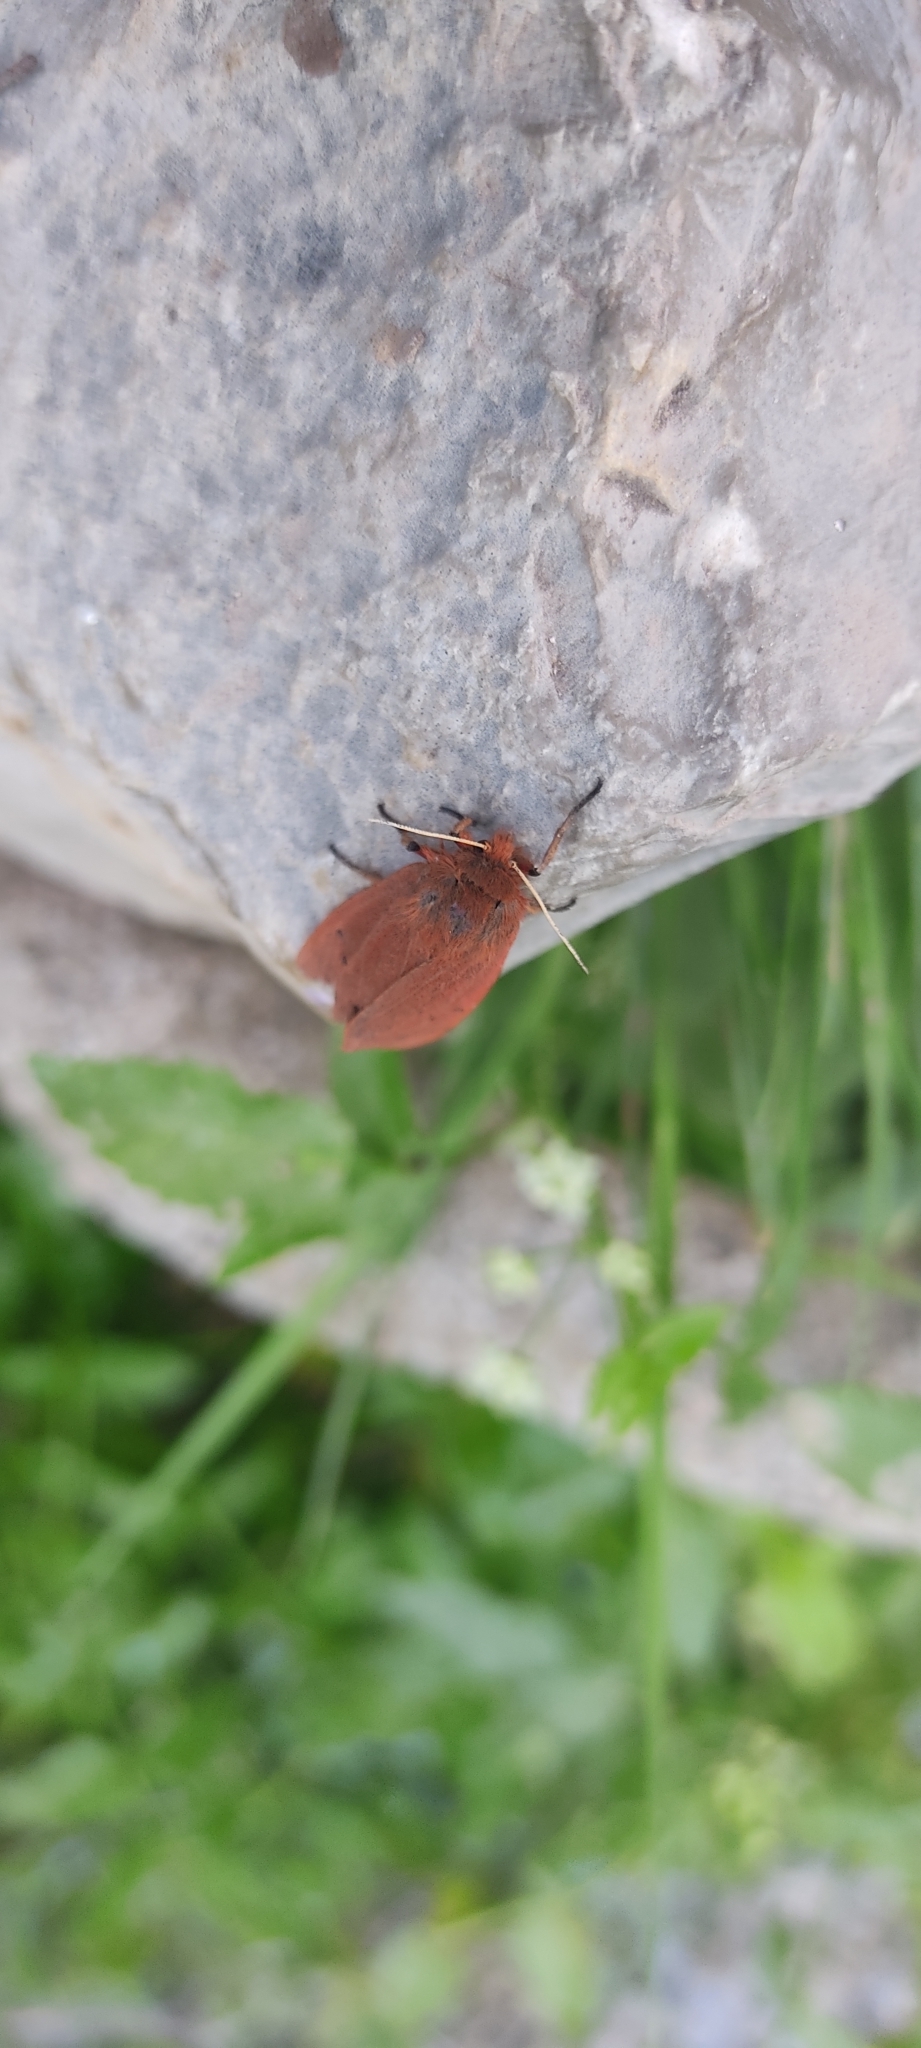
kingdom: Animalia
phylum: Arthropoda
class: Insecta
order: Lepidoptera
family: Erebidae
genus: Phragmatobia
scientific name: Phragmatobia fuliginosa
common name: Ruby tiger
